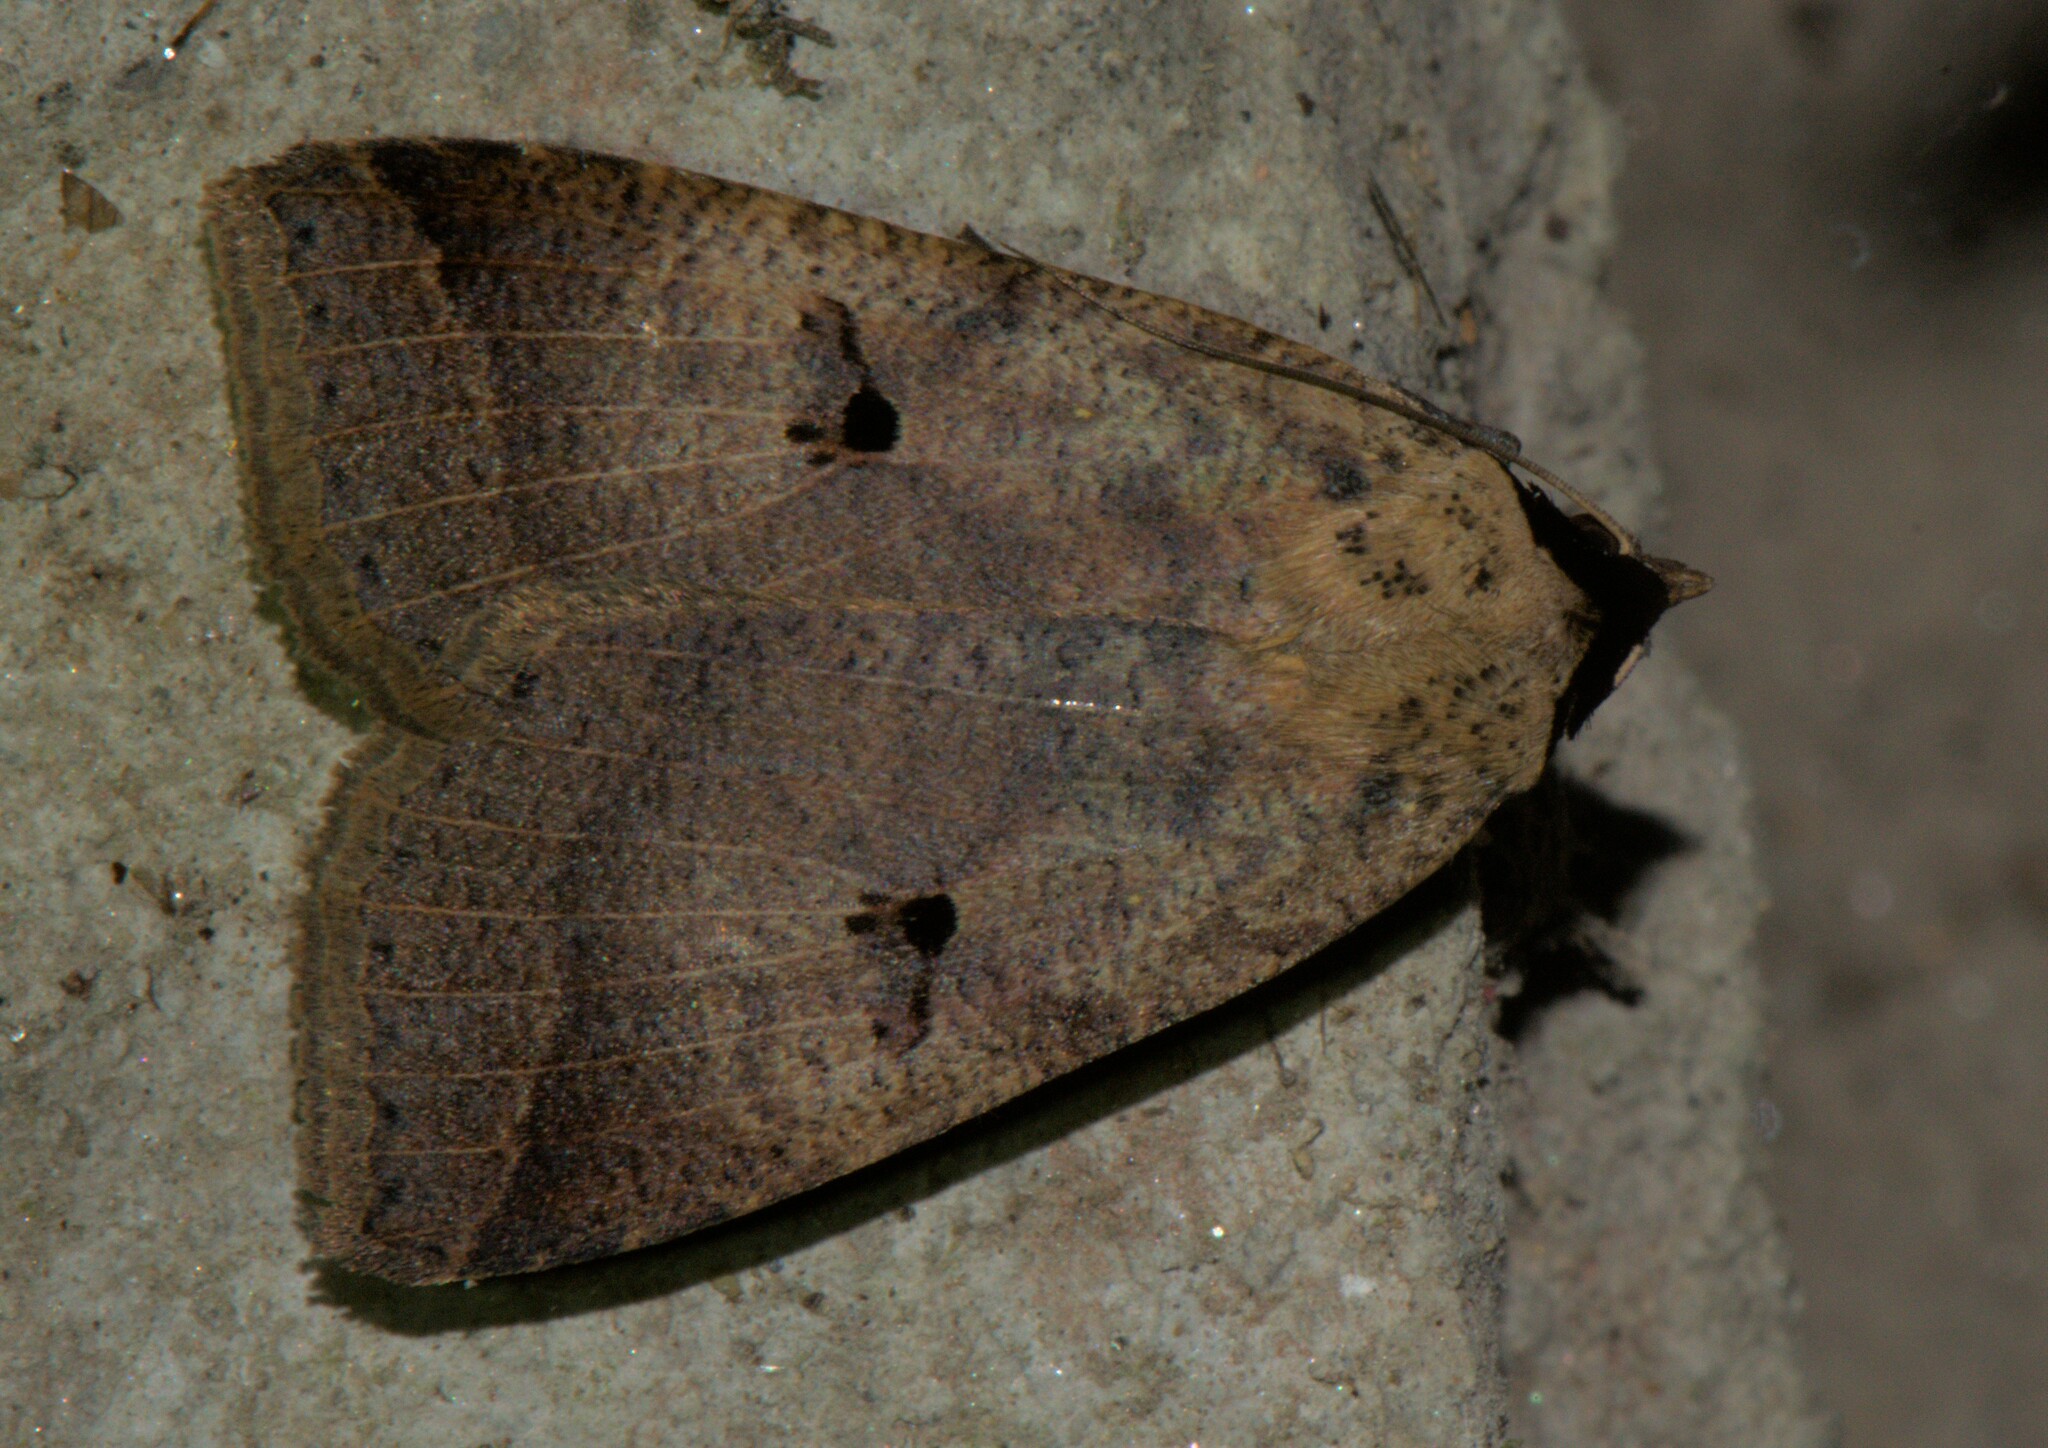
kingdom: Animalia
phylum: Arthropoda
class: Insecta
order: Lepidoptera
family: Erebidae
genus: Lygephila
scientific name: Lygephila dorsigera
